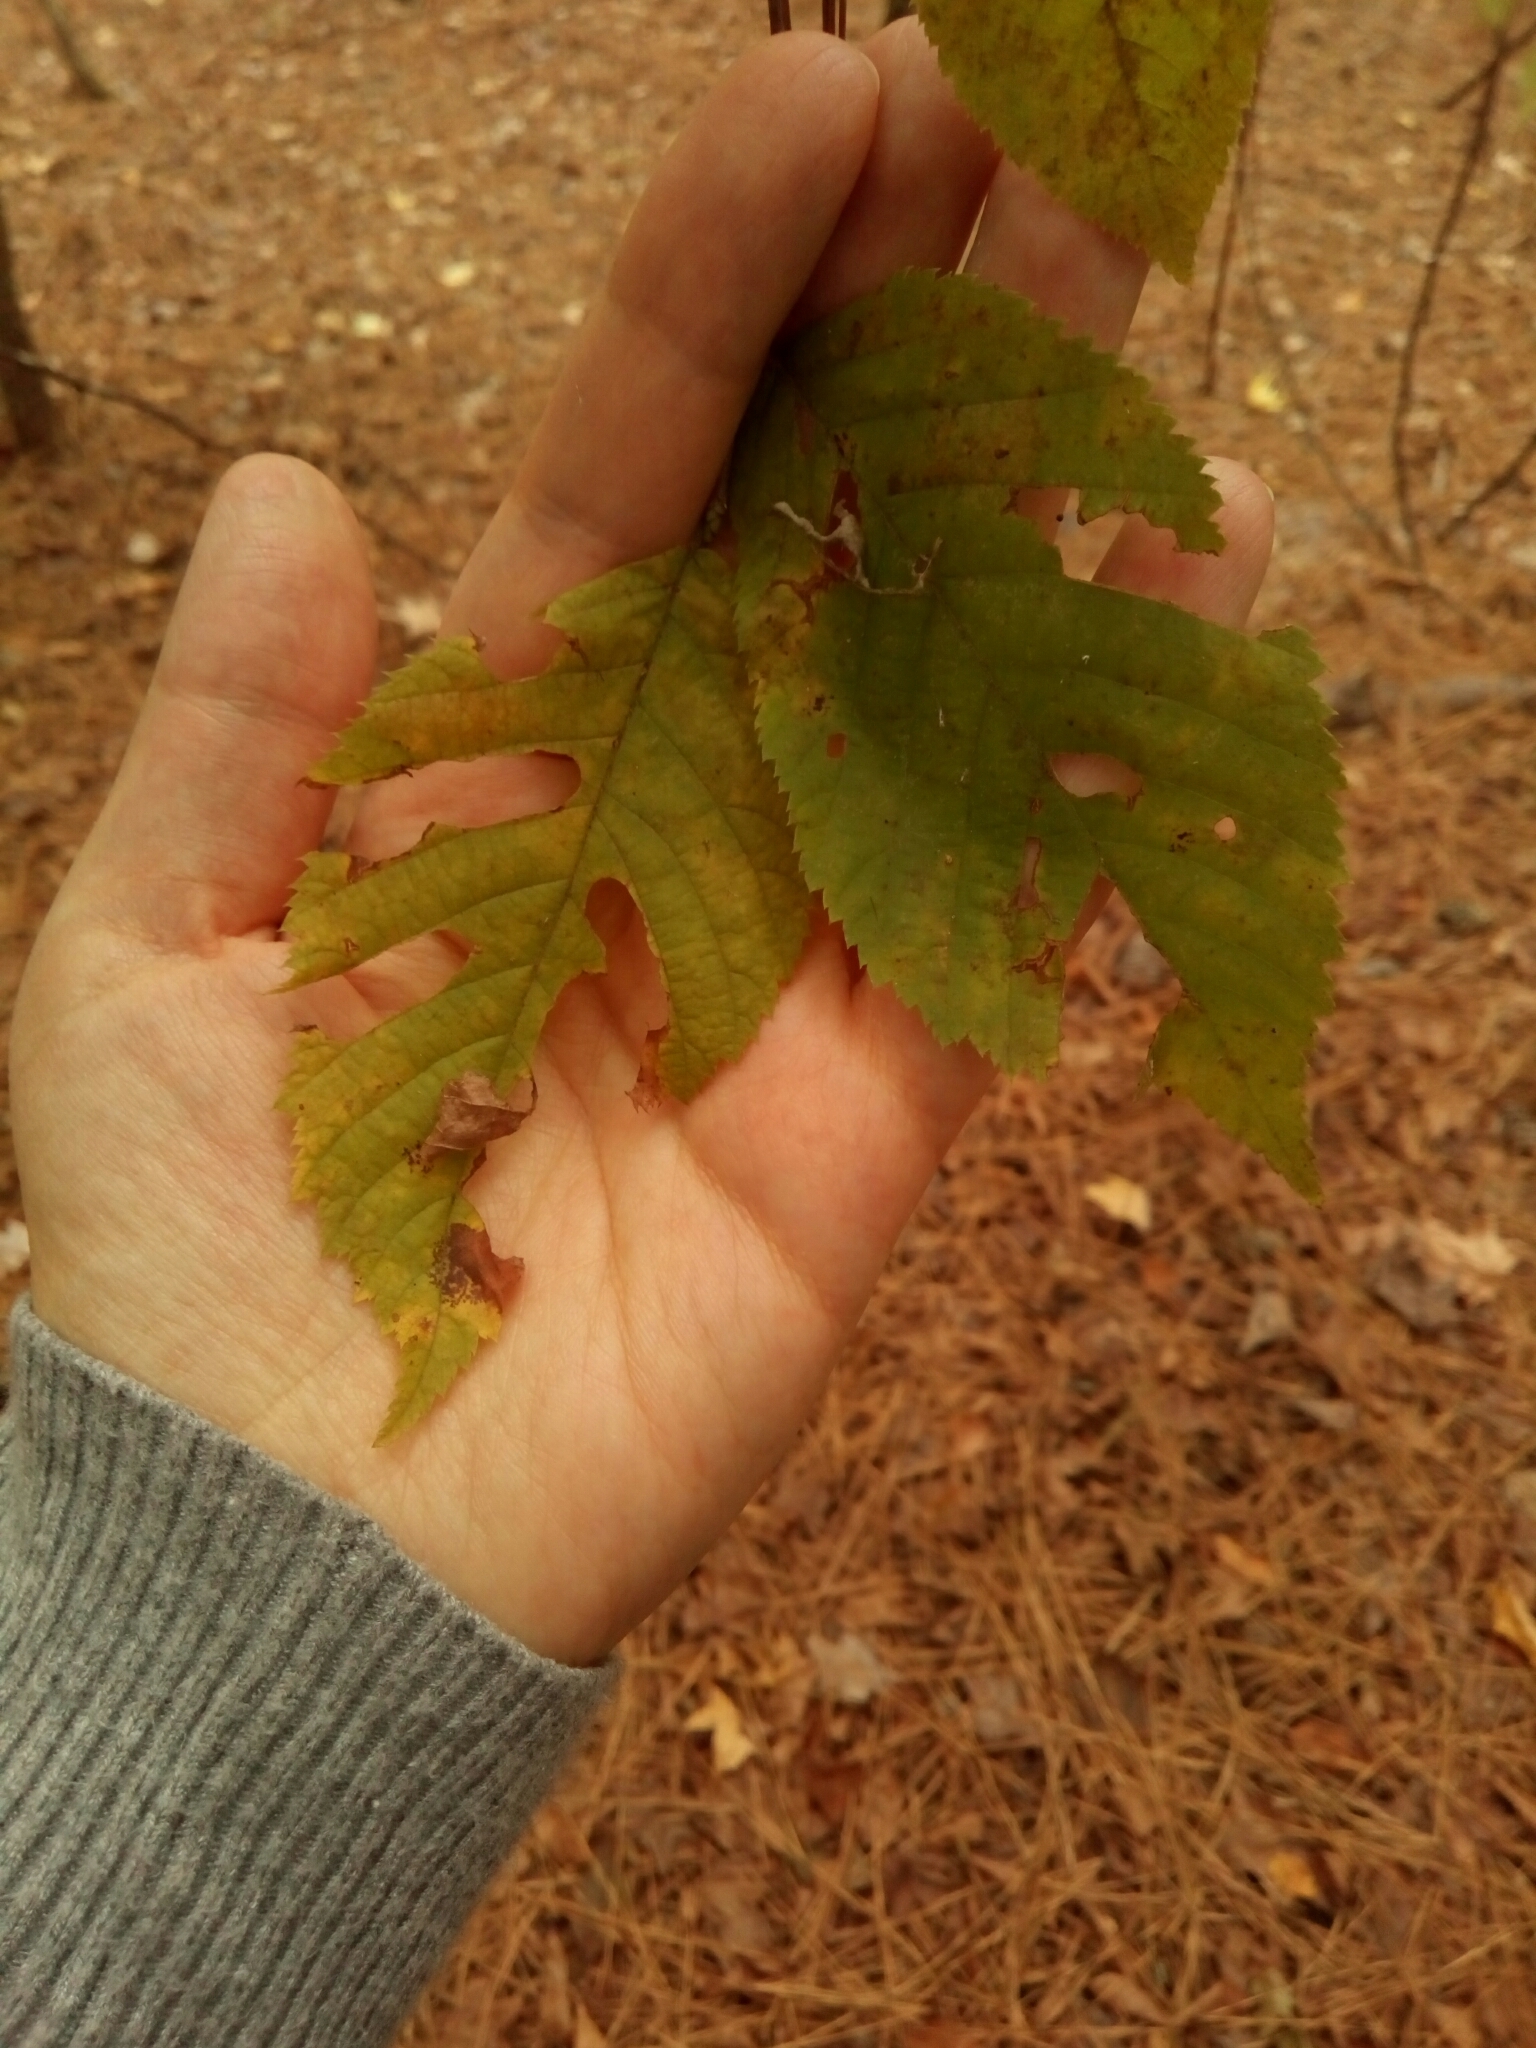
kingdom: Plantae
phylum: Tracheophyta
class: Magnoliopsida
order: Fagales
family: Betulaceae
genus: Ostrya
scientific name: Ostrya virginiana
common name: Ironwood
